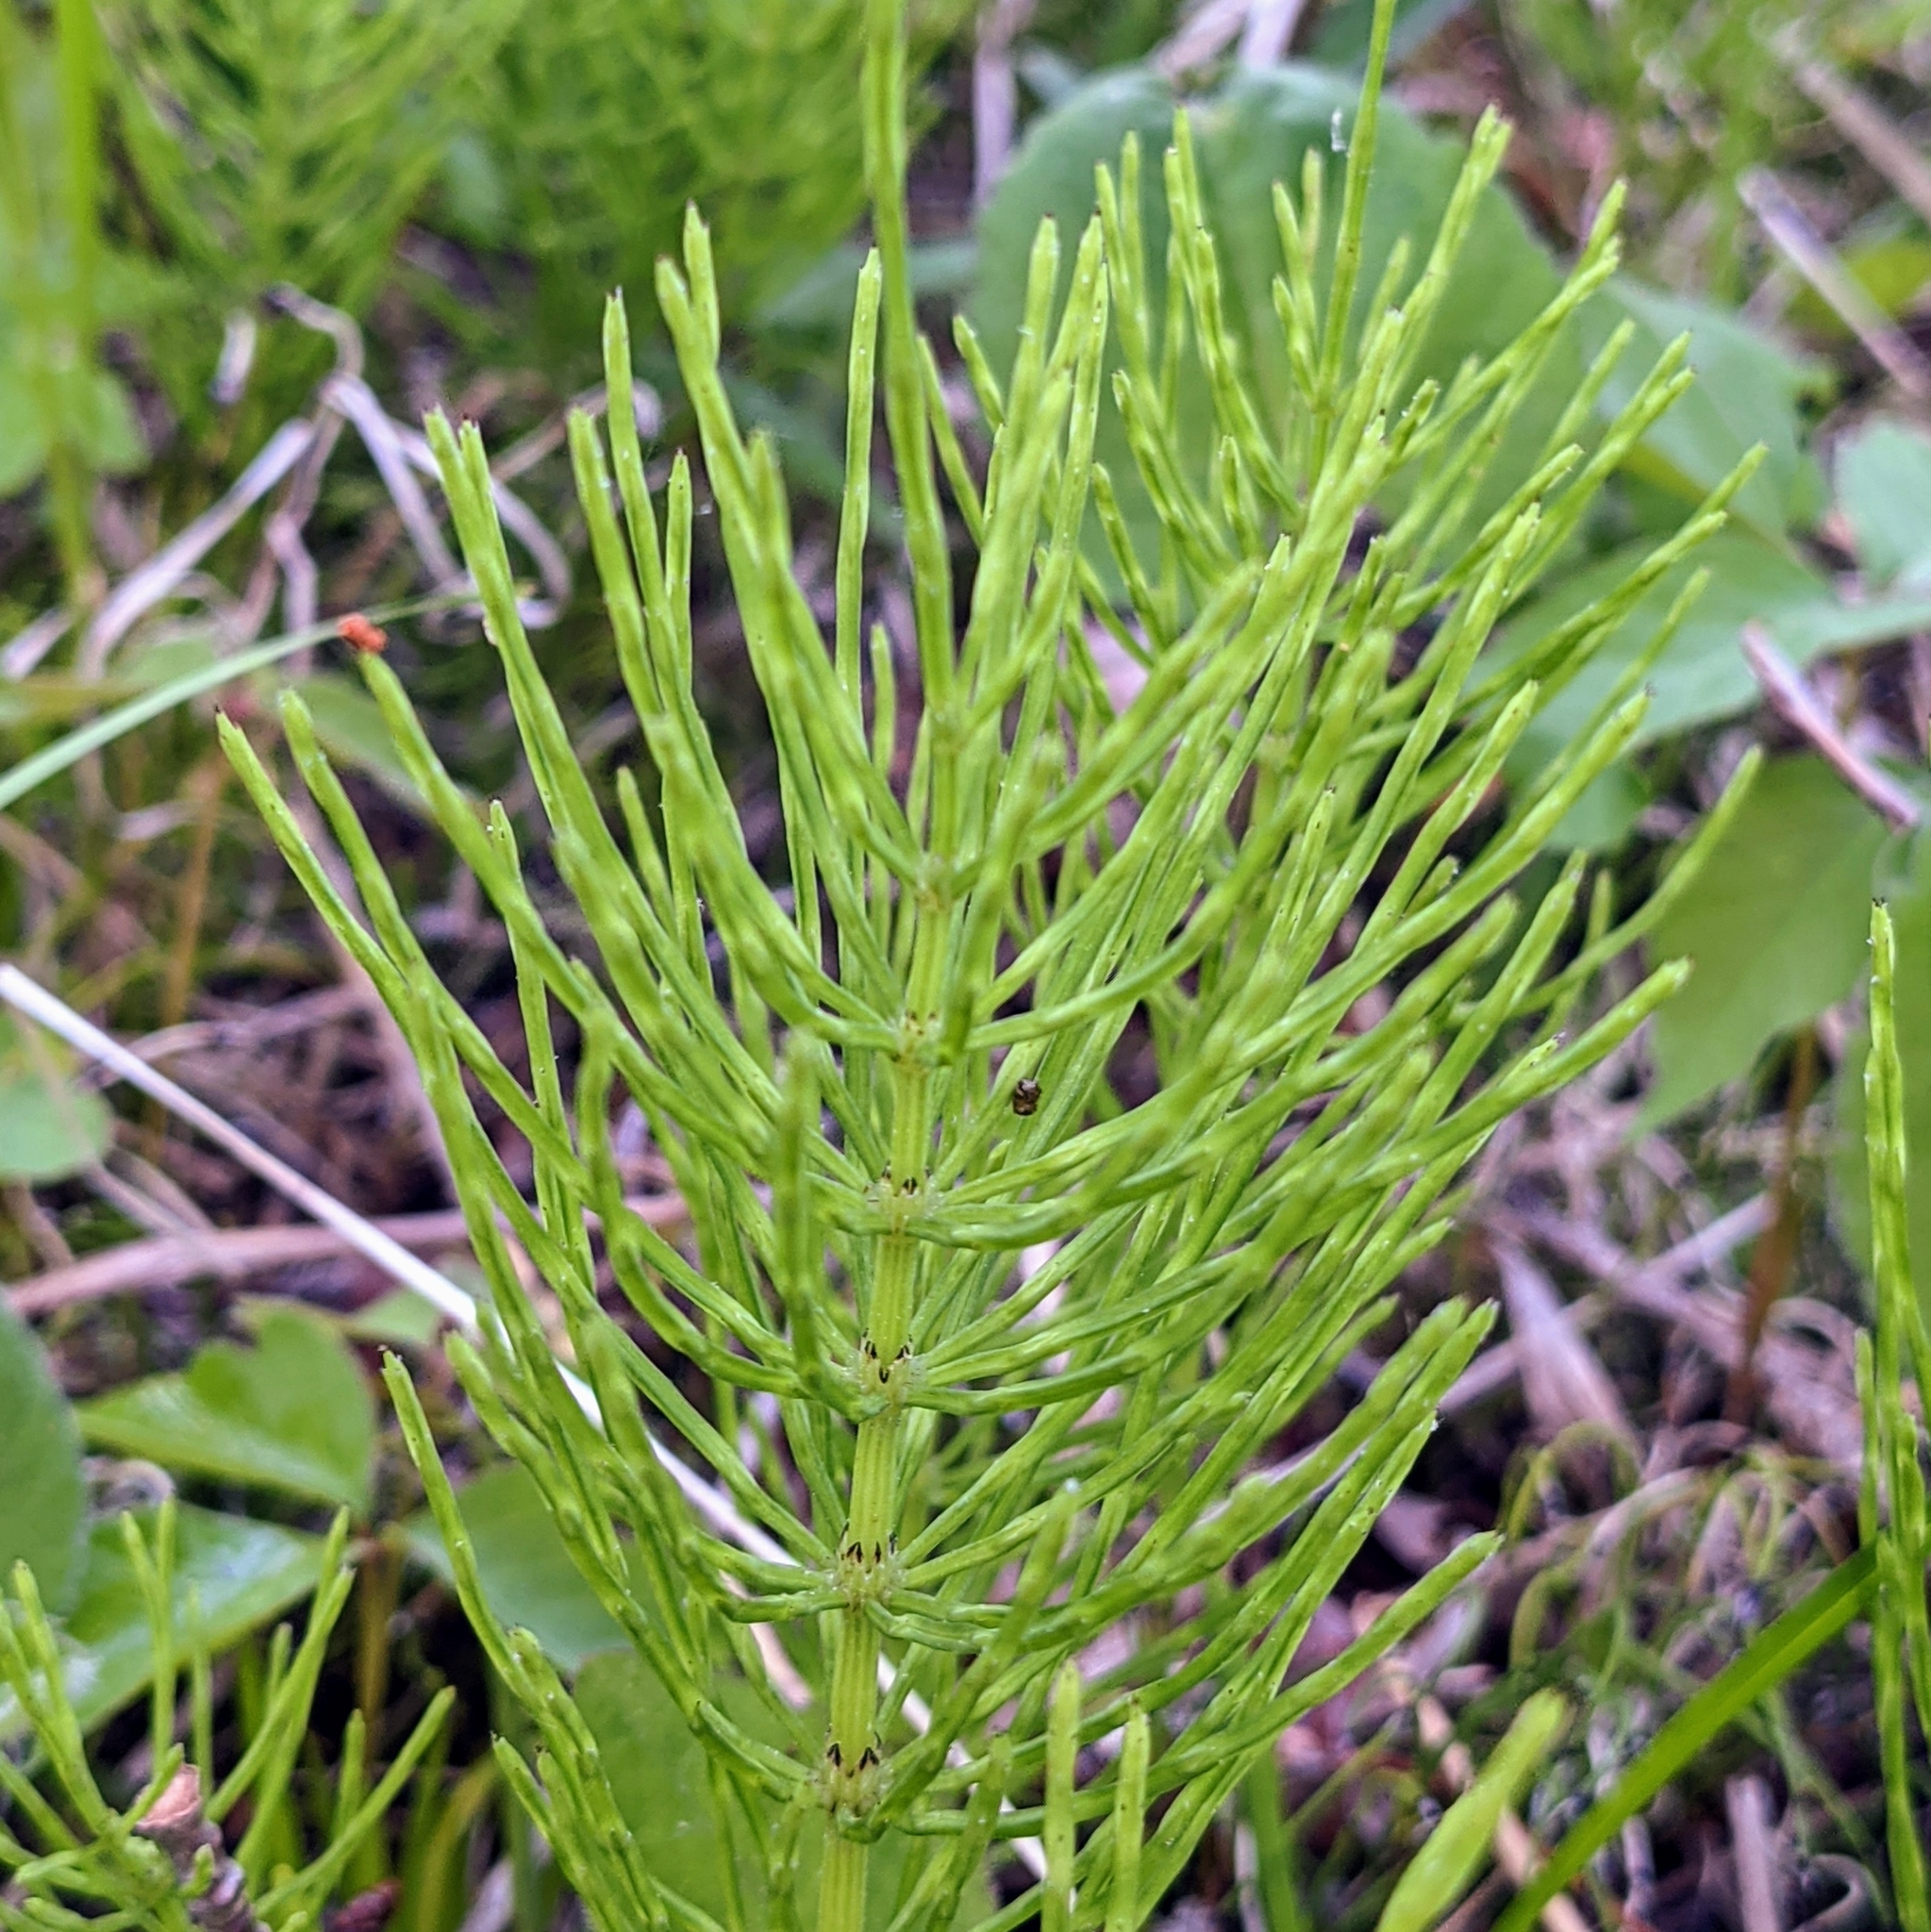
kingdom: Plantae
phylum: Tracheophyta
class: Polypodiopsida
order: Equisetales
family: Equisetaceae
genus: Equisetum
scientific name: Equisetum arvense
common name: Field horsetail
